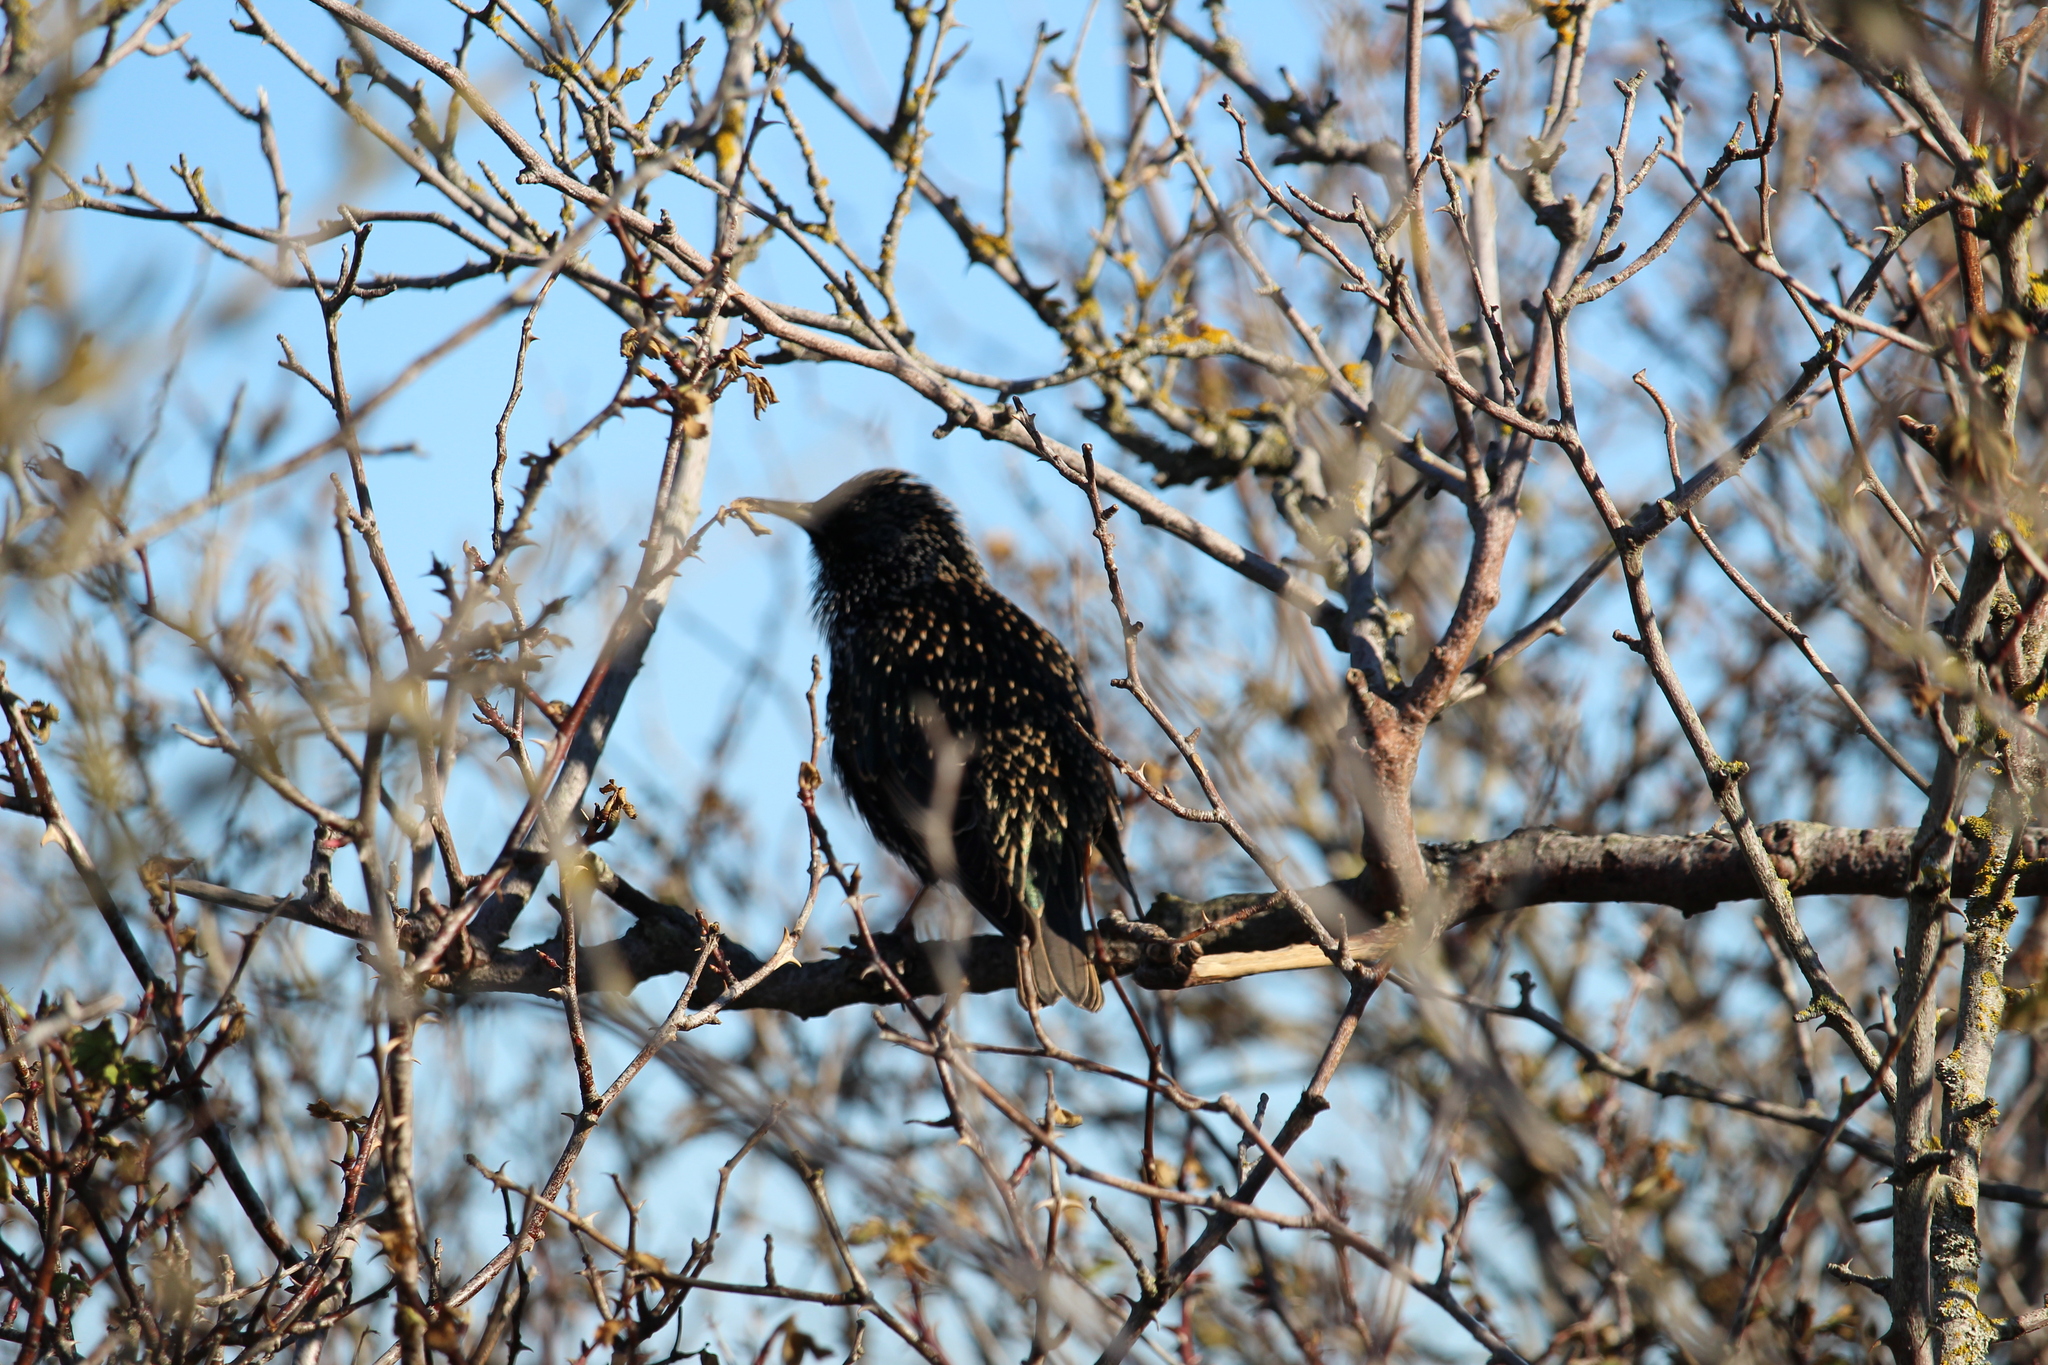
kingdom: Animalia
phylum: Chordata
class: Aves
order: Passeriformes
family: Sturnidae
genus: Sturnus
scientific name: Sturnus vulgaris
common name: Common starling
